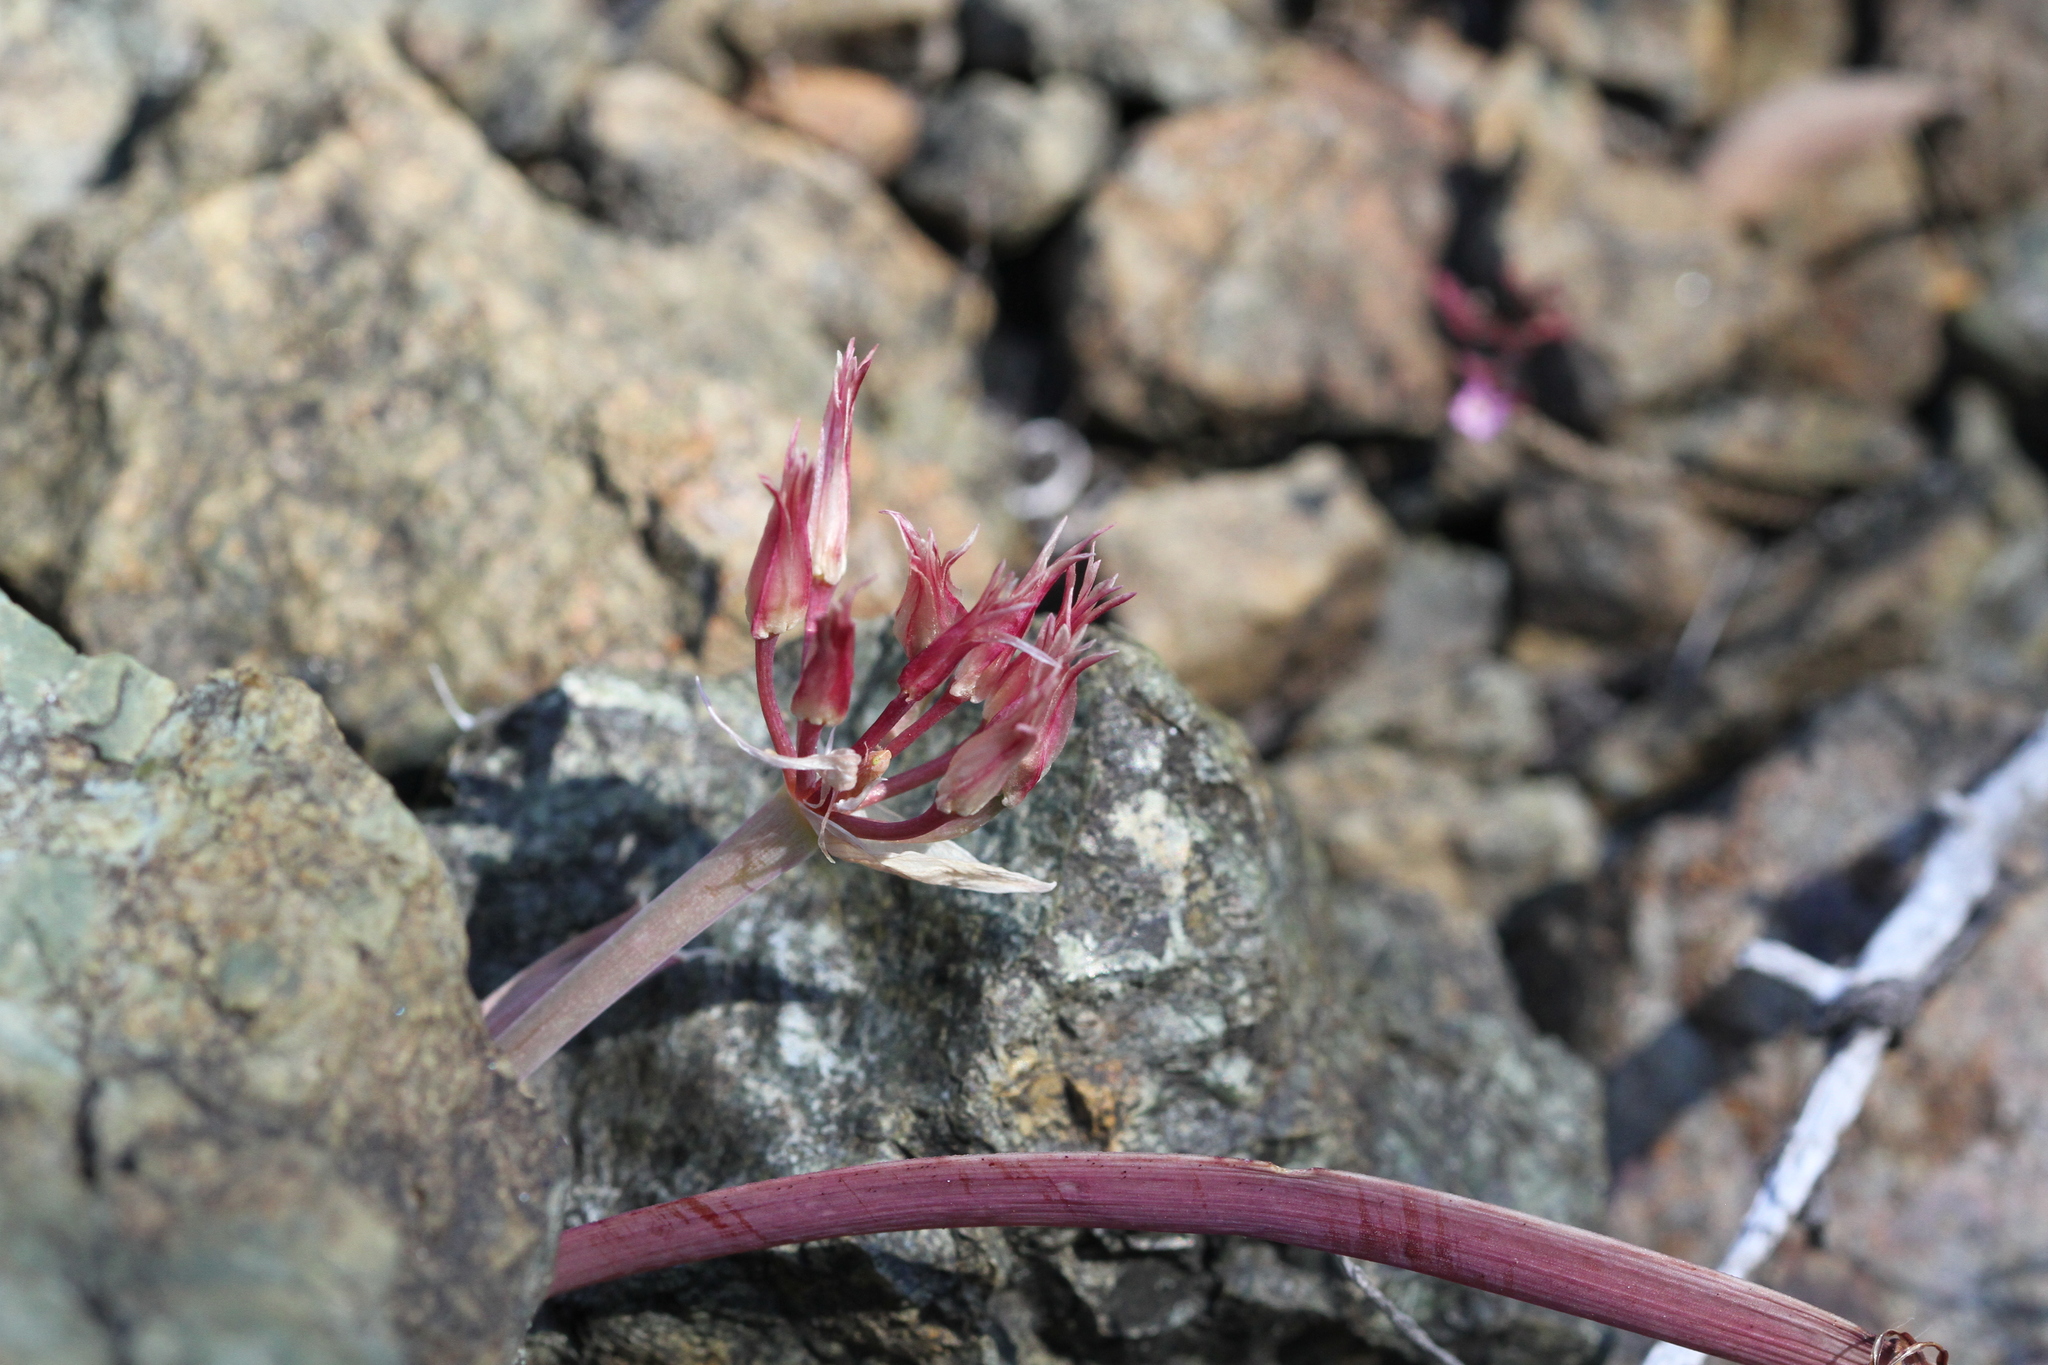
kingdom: Plantae
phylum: Tracheophyta
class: Liliopsida
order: Asparagales
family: Amaryllidaceae
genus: Allium
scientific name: Allium falcifolium
